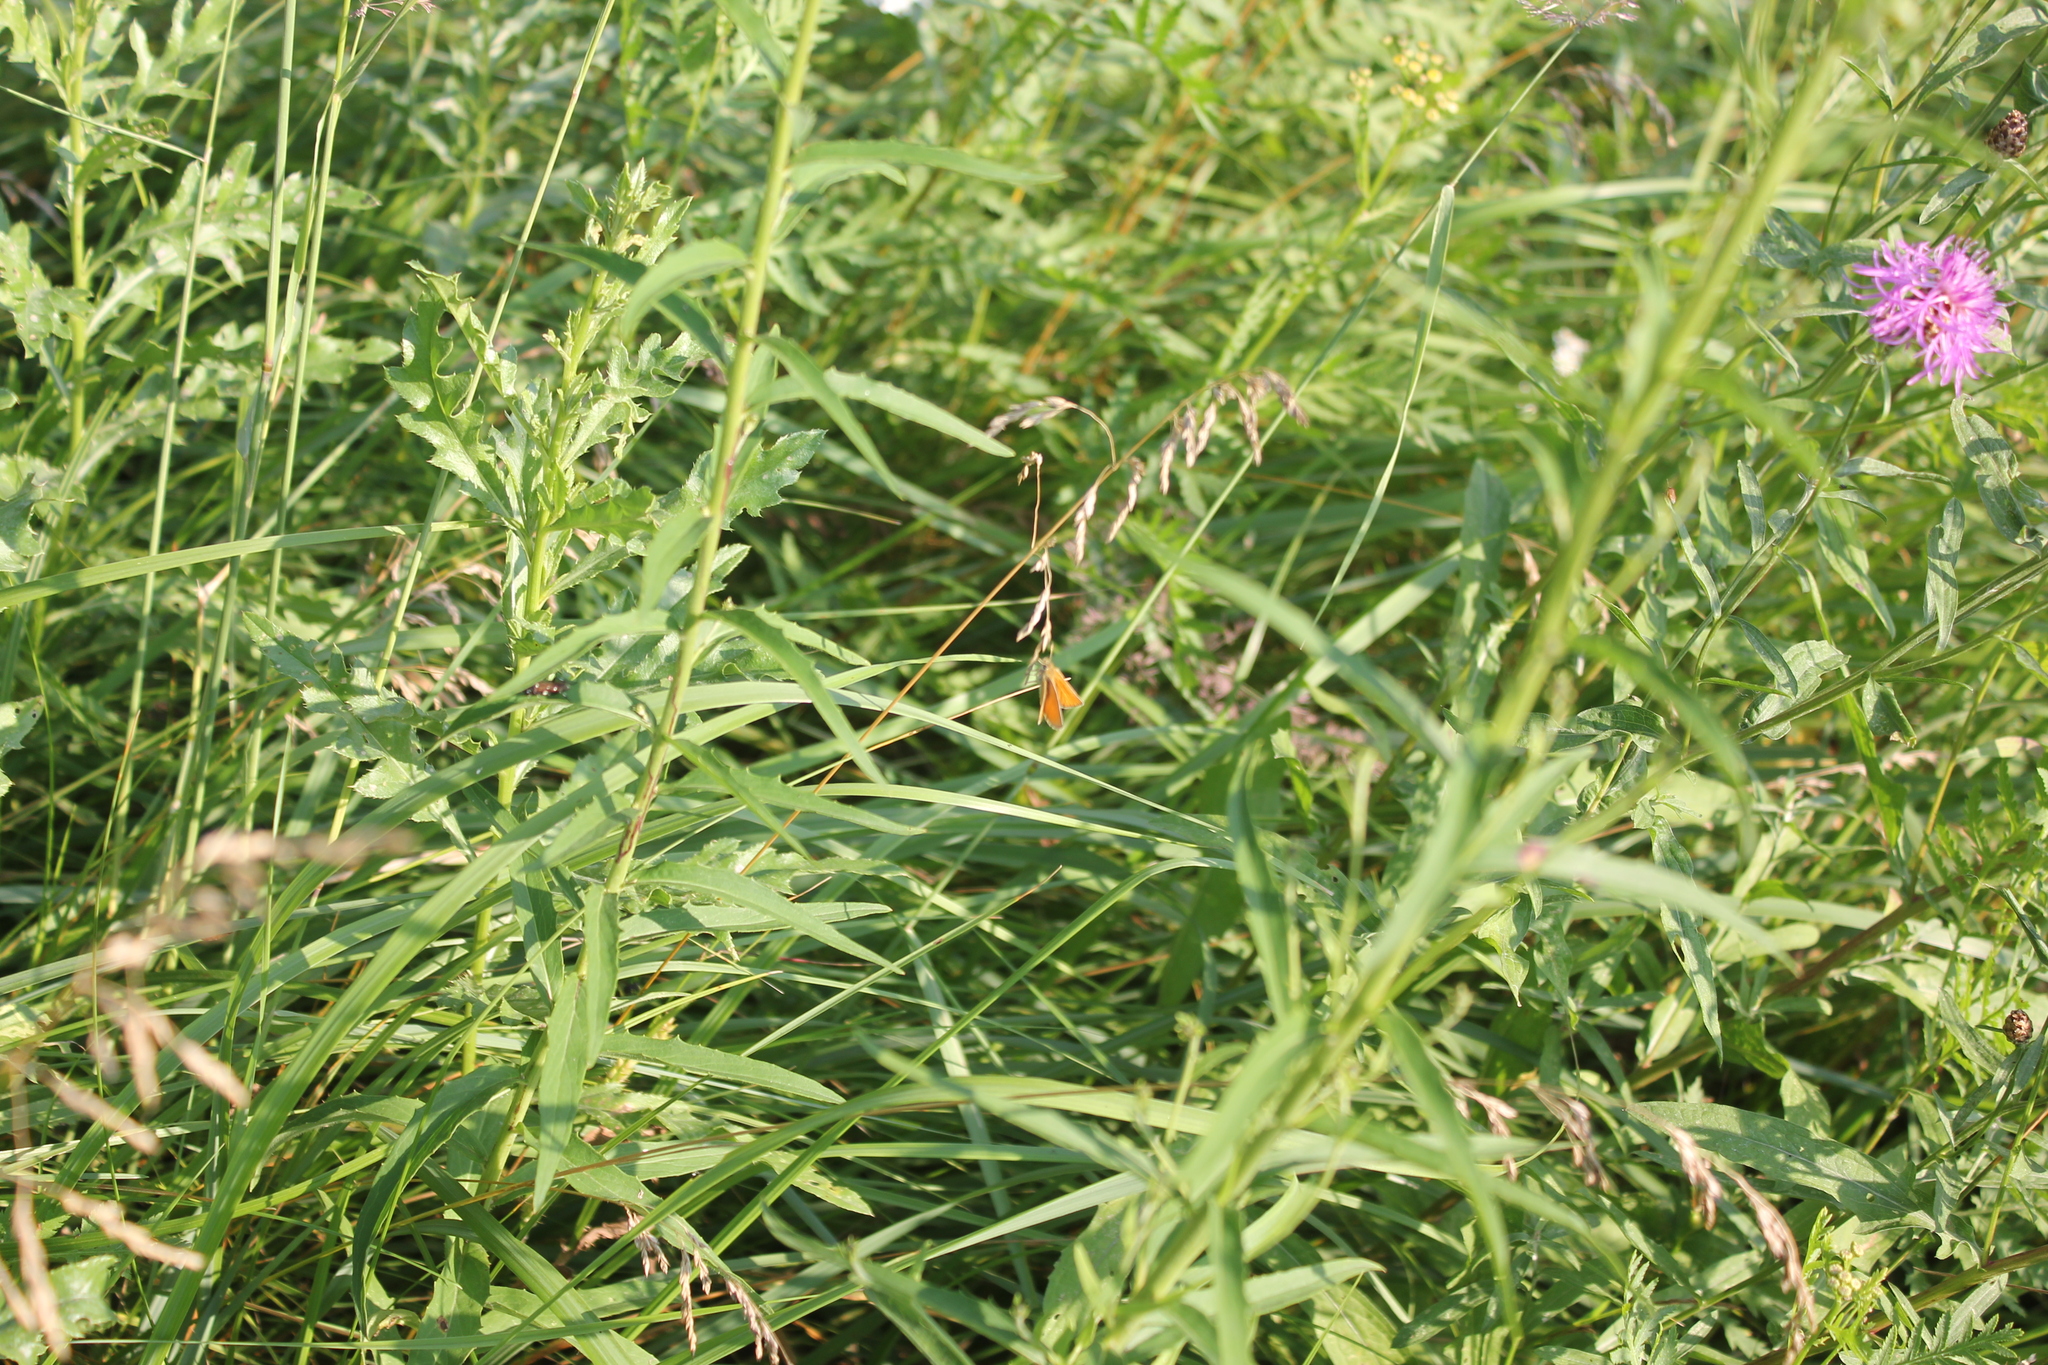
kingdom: Animalia
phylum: Arthropoda
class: Insecta
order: Lepidoptera
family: Hesperiidae
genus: Thymelicus
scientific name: Thymelicus lineola
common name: Essex skipper
